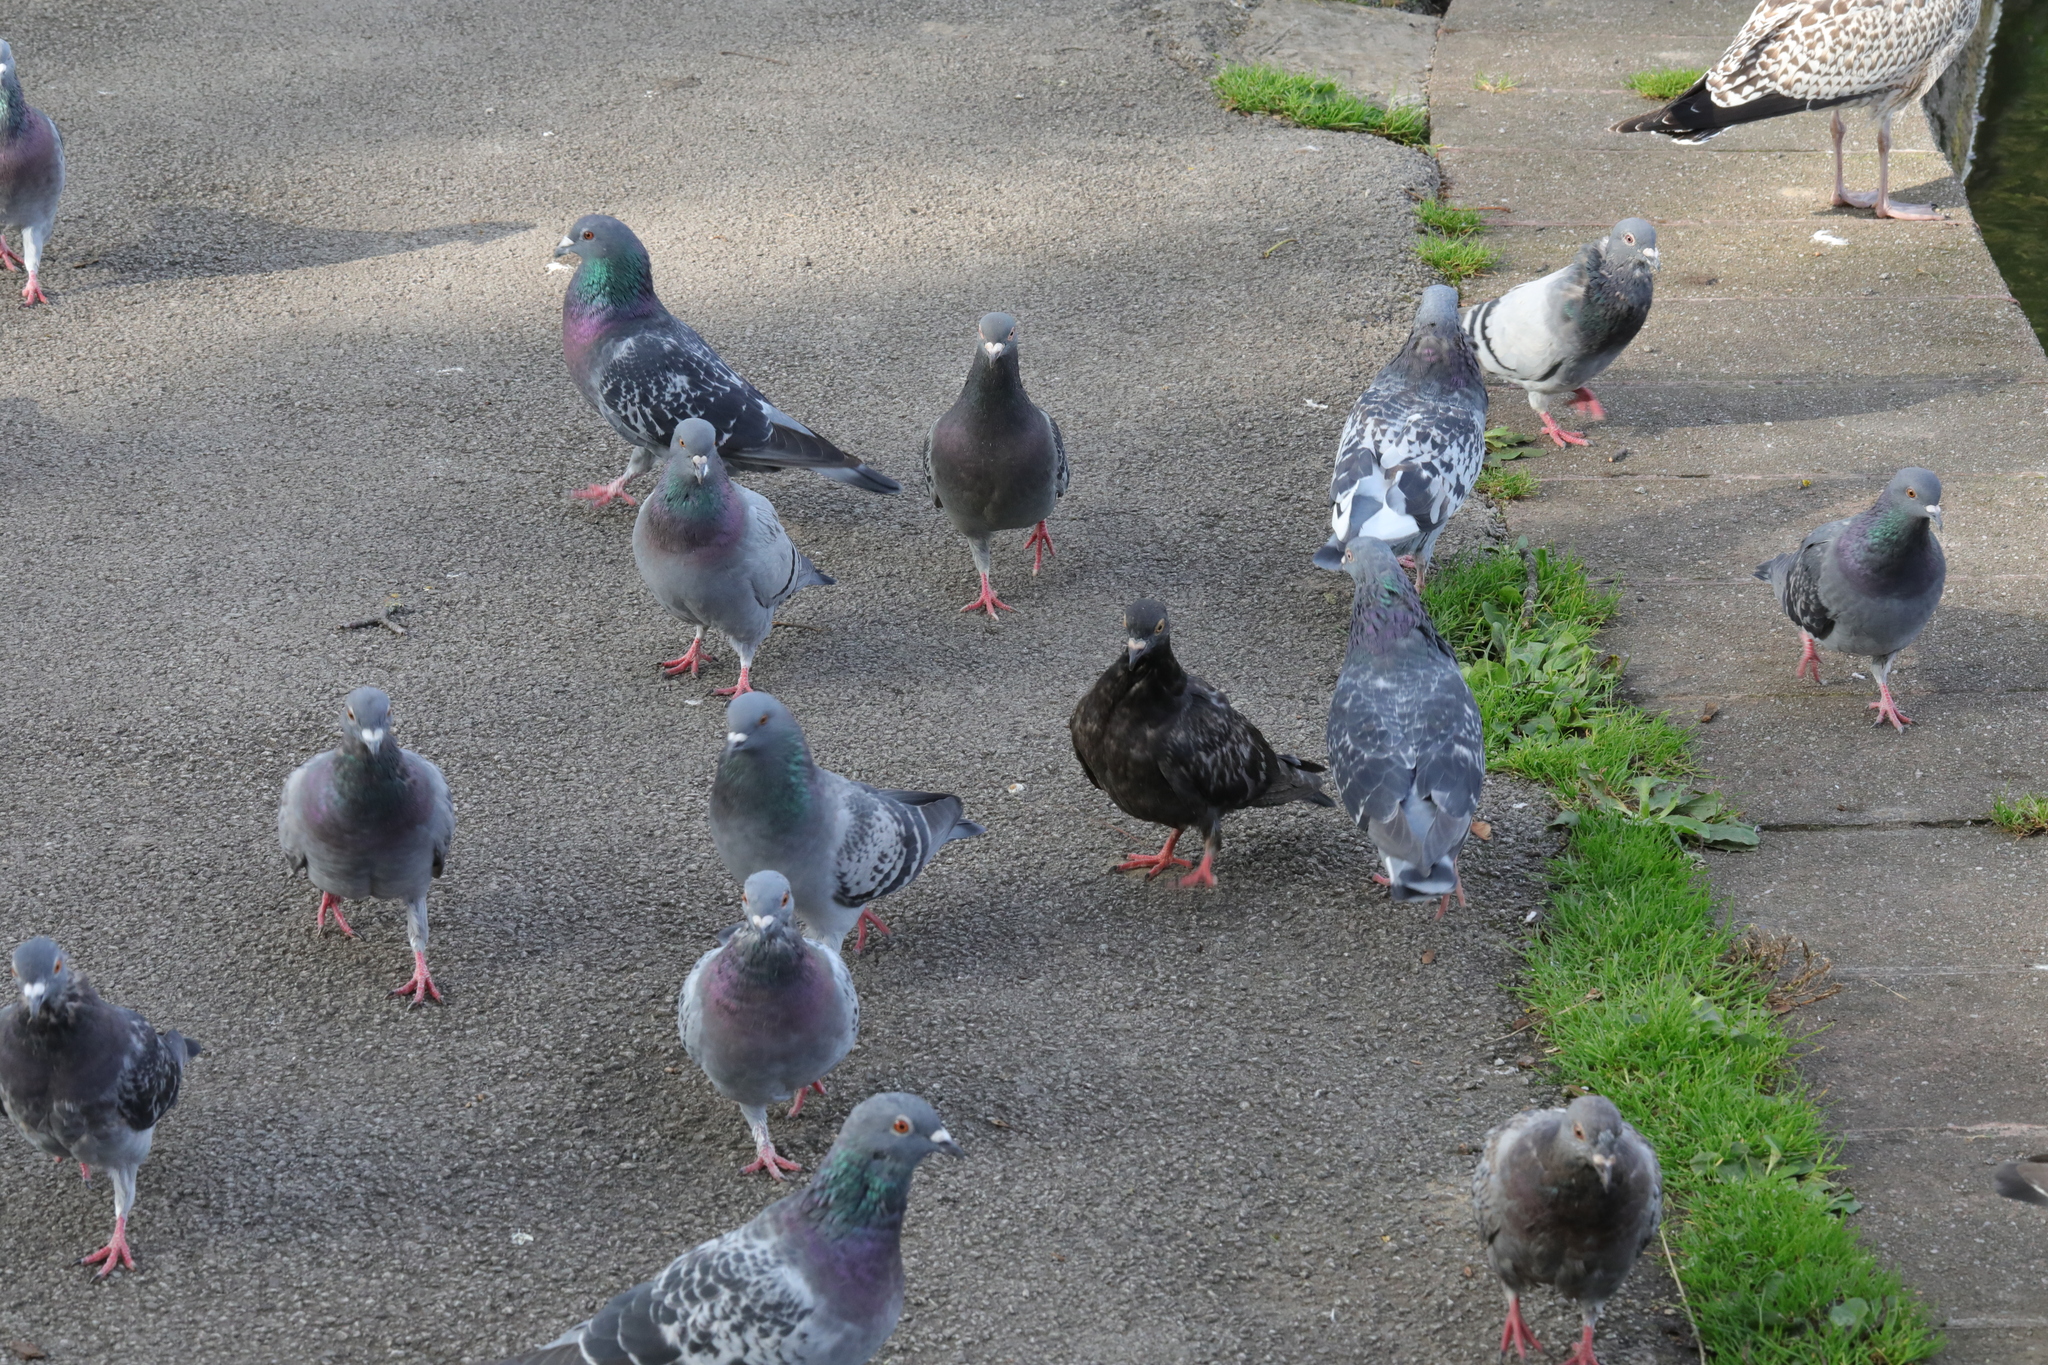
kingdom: Animalia
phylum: Chordata
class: Aves
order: Columbiformes
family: Columbidae
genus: Columba
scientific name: Columba livia
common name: Rock pigeon
